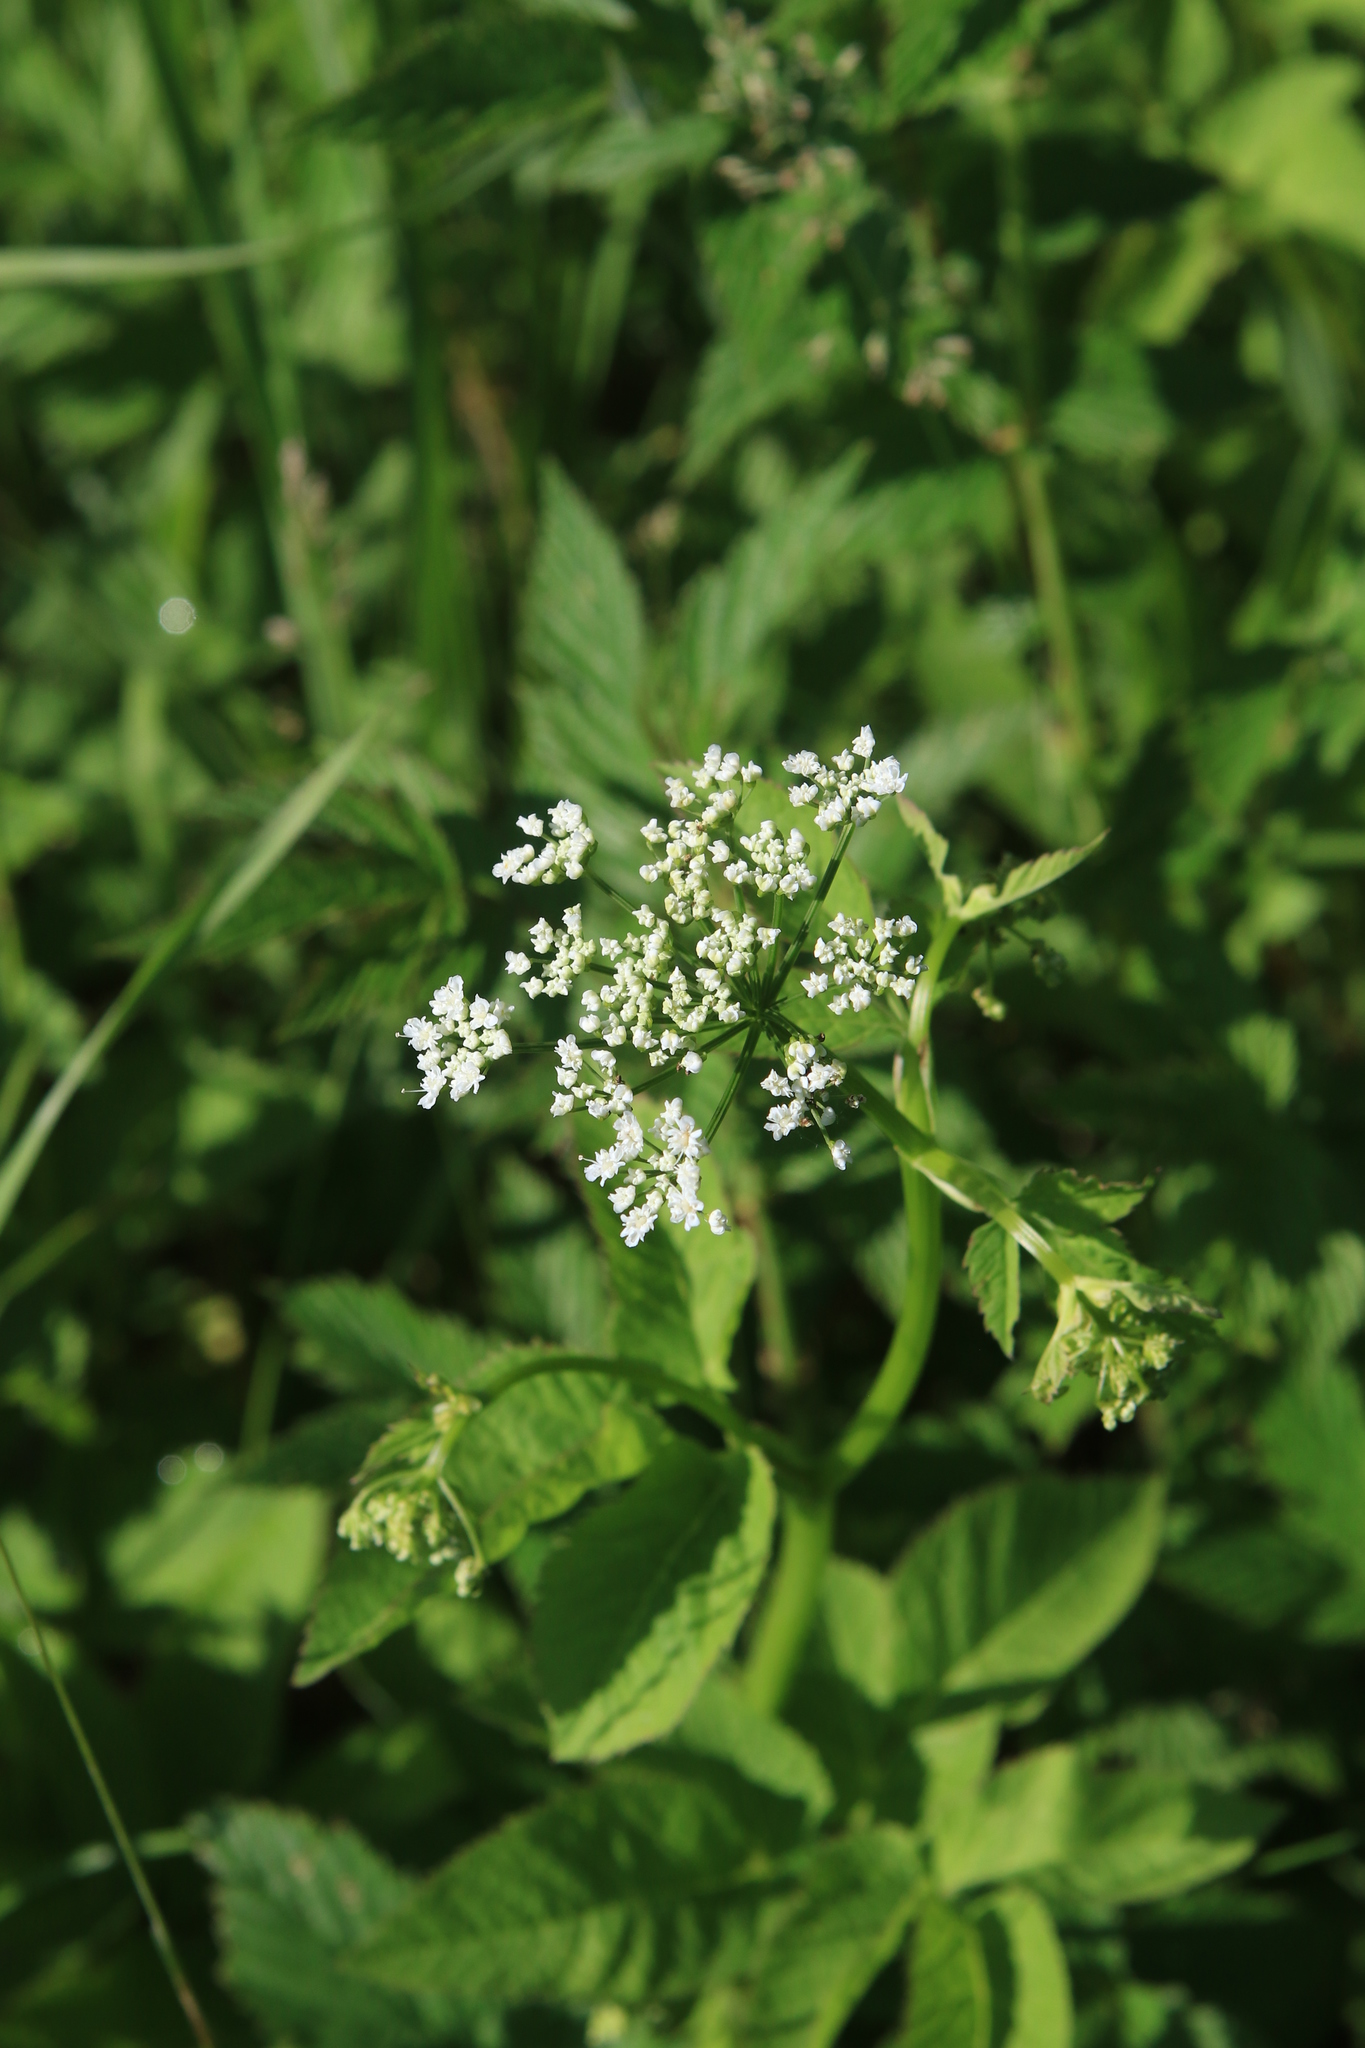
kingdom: Plantae
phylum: Tracheophyta
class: Magnoliopsida
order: Apiales
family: Apiaceae
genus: Aegopodium
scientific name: Aegopodium podagraria
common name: Ground-elder
